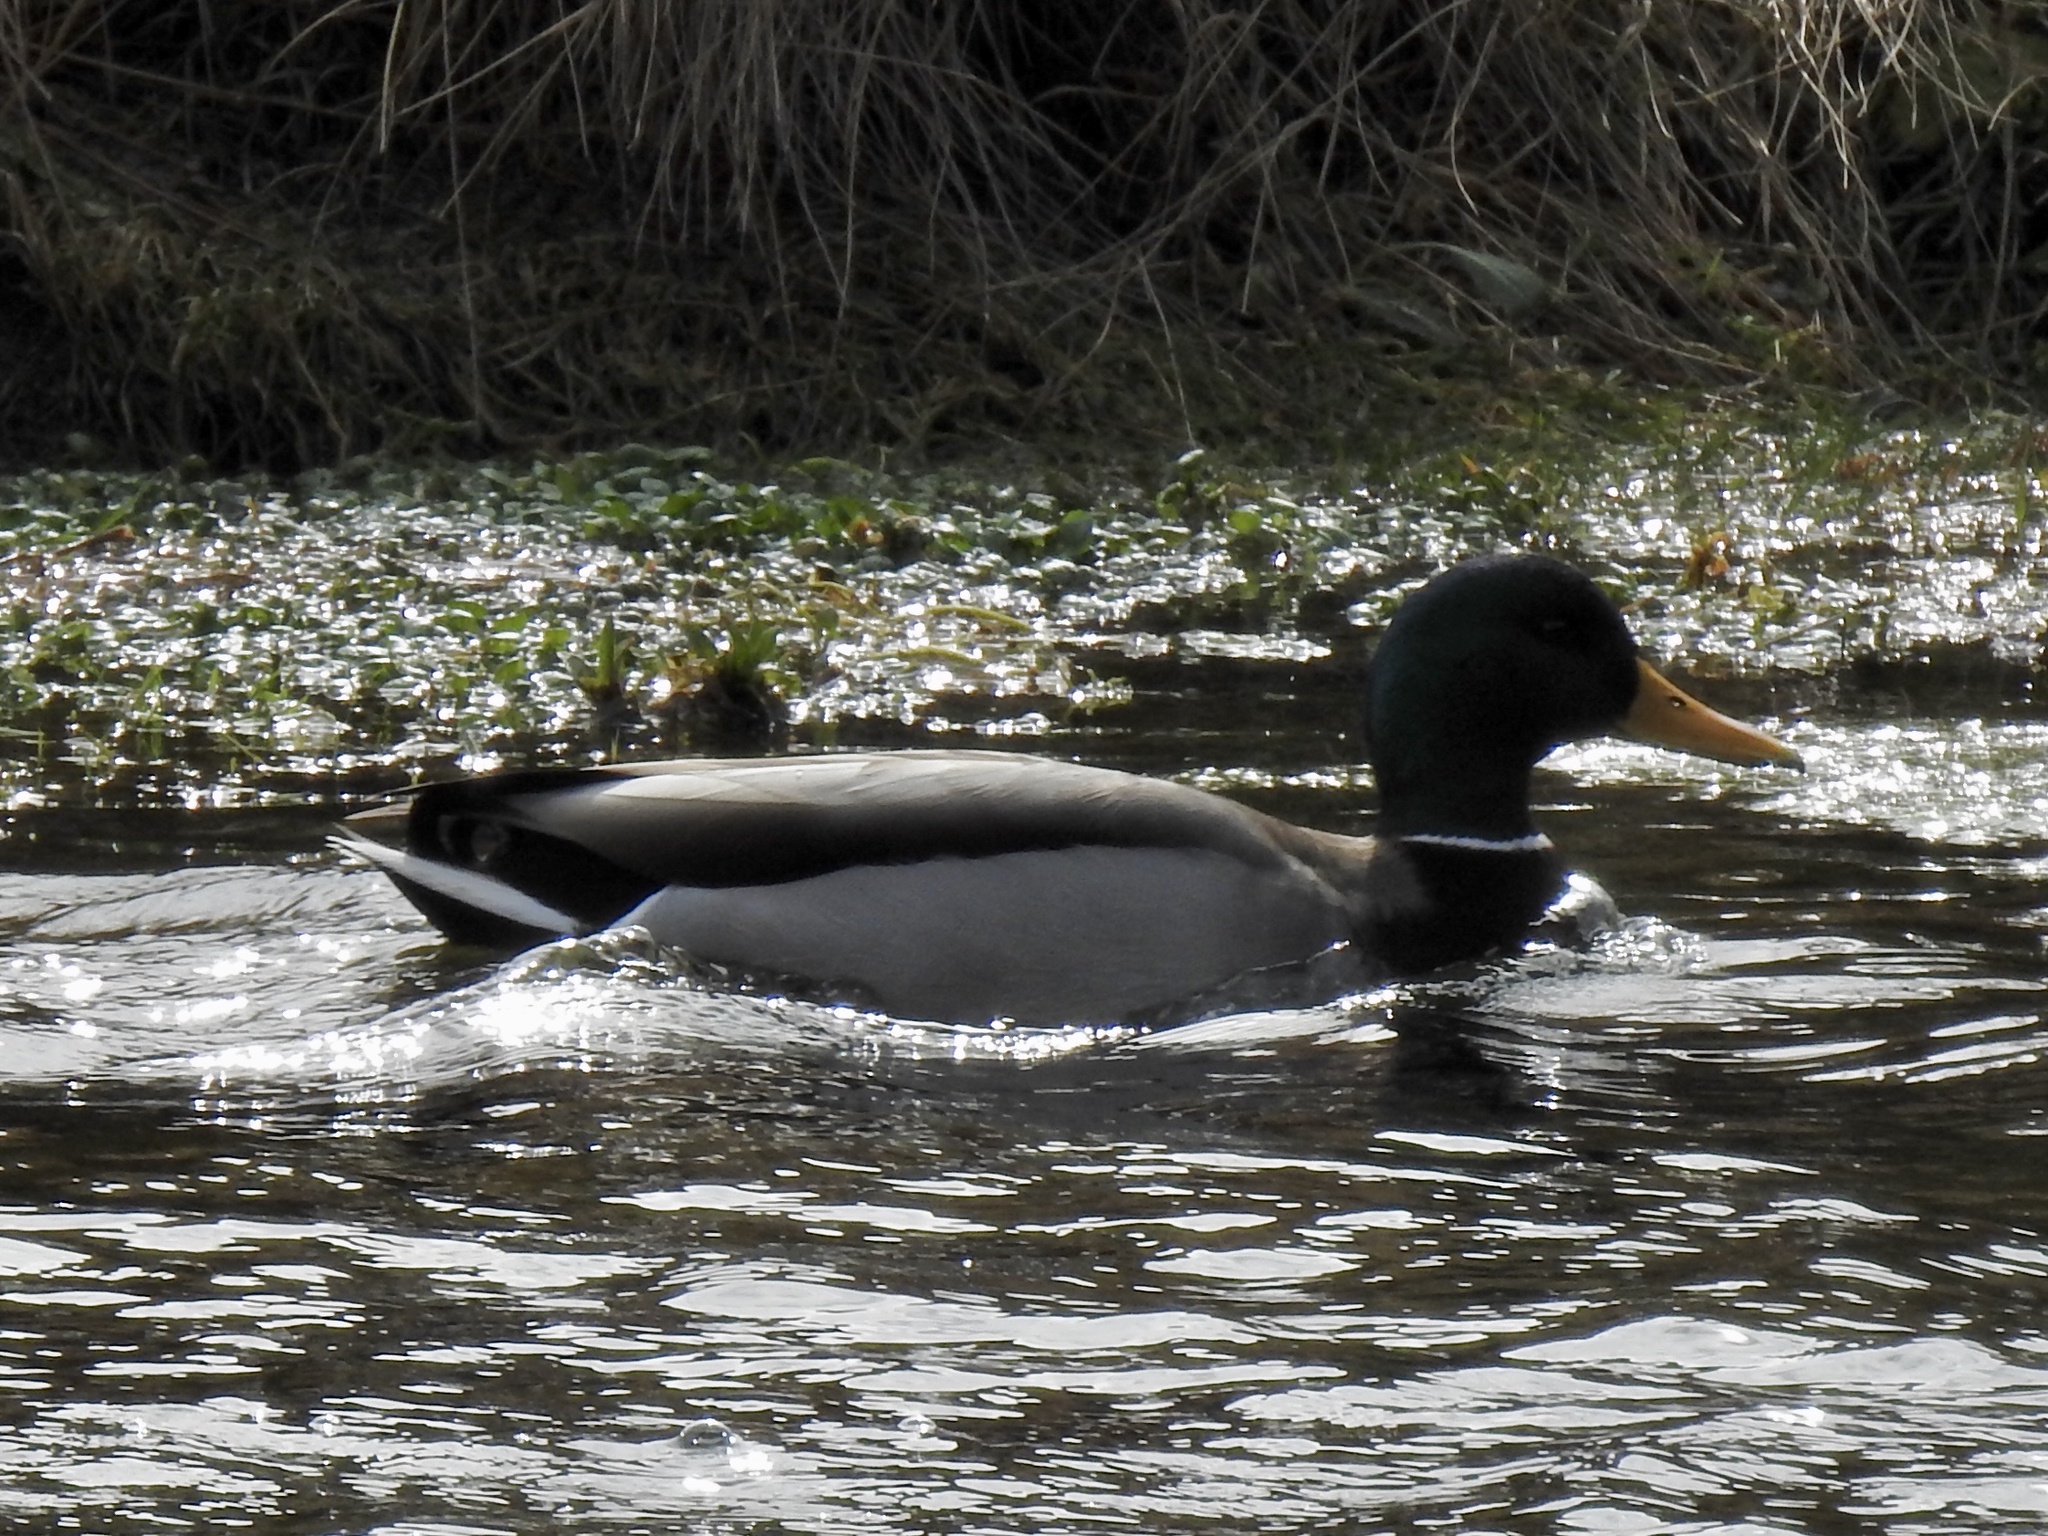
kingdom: Animalia
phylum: Chordata
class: Aves
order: Anseriformes
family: Anatidae
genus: Anas
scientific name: Anas platyrhynchos
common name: Mallard
